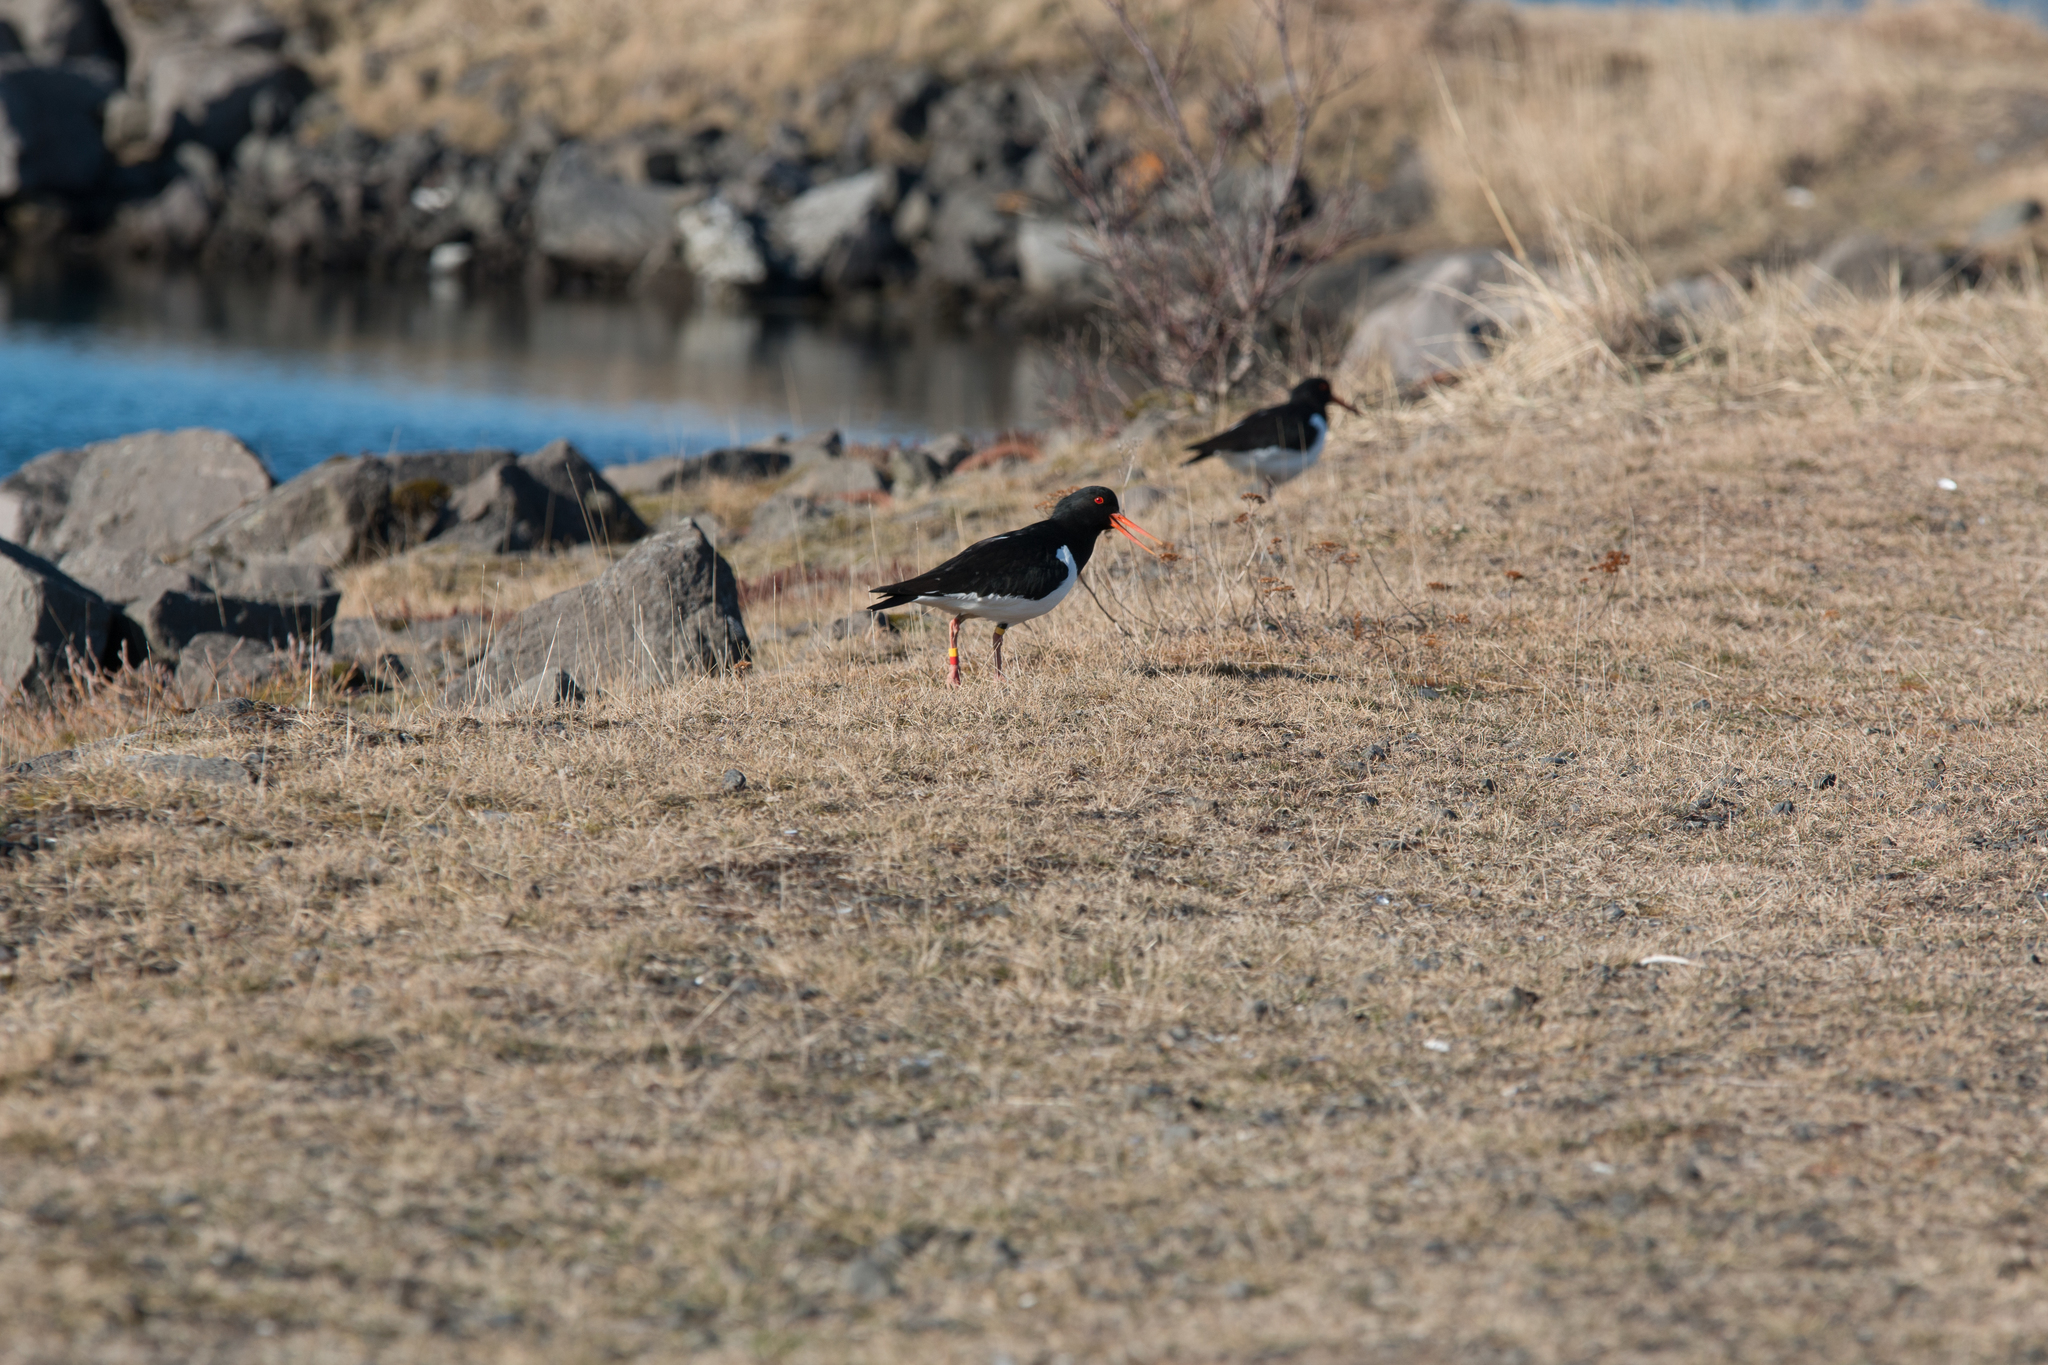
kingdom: Animalia
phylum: Chordata
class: Aves
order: Charadriiformes
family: Haematopodidae
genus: Haematopus
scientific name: Haematopus ostralegus
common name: Eurasian oystercatcher
